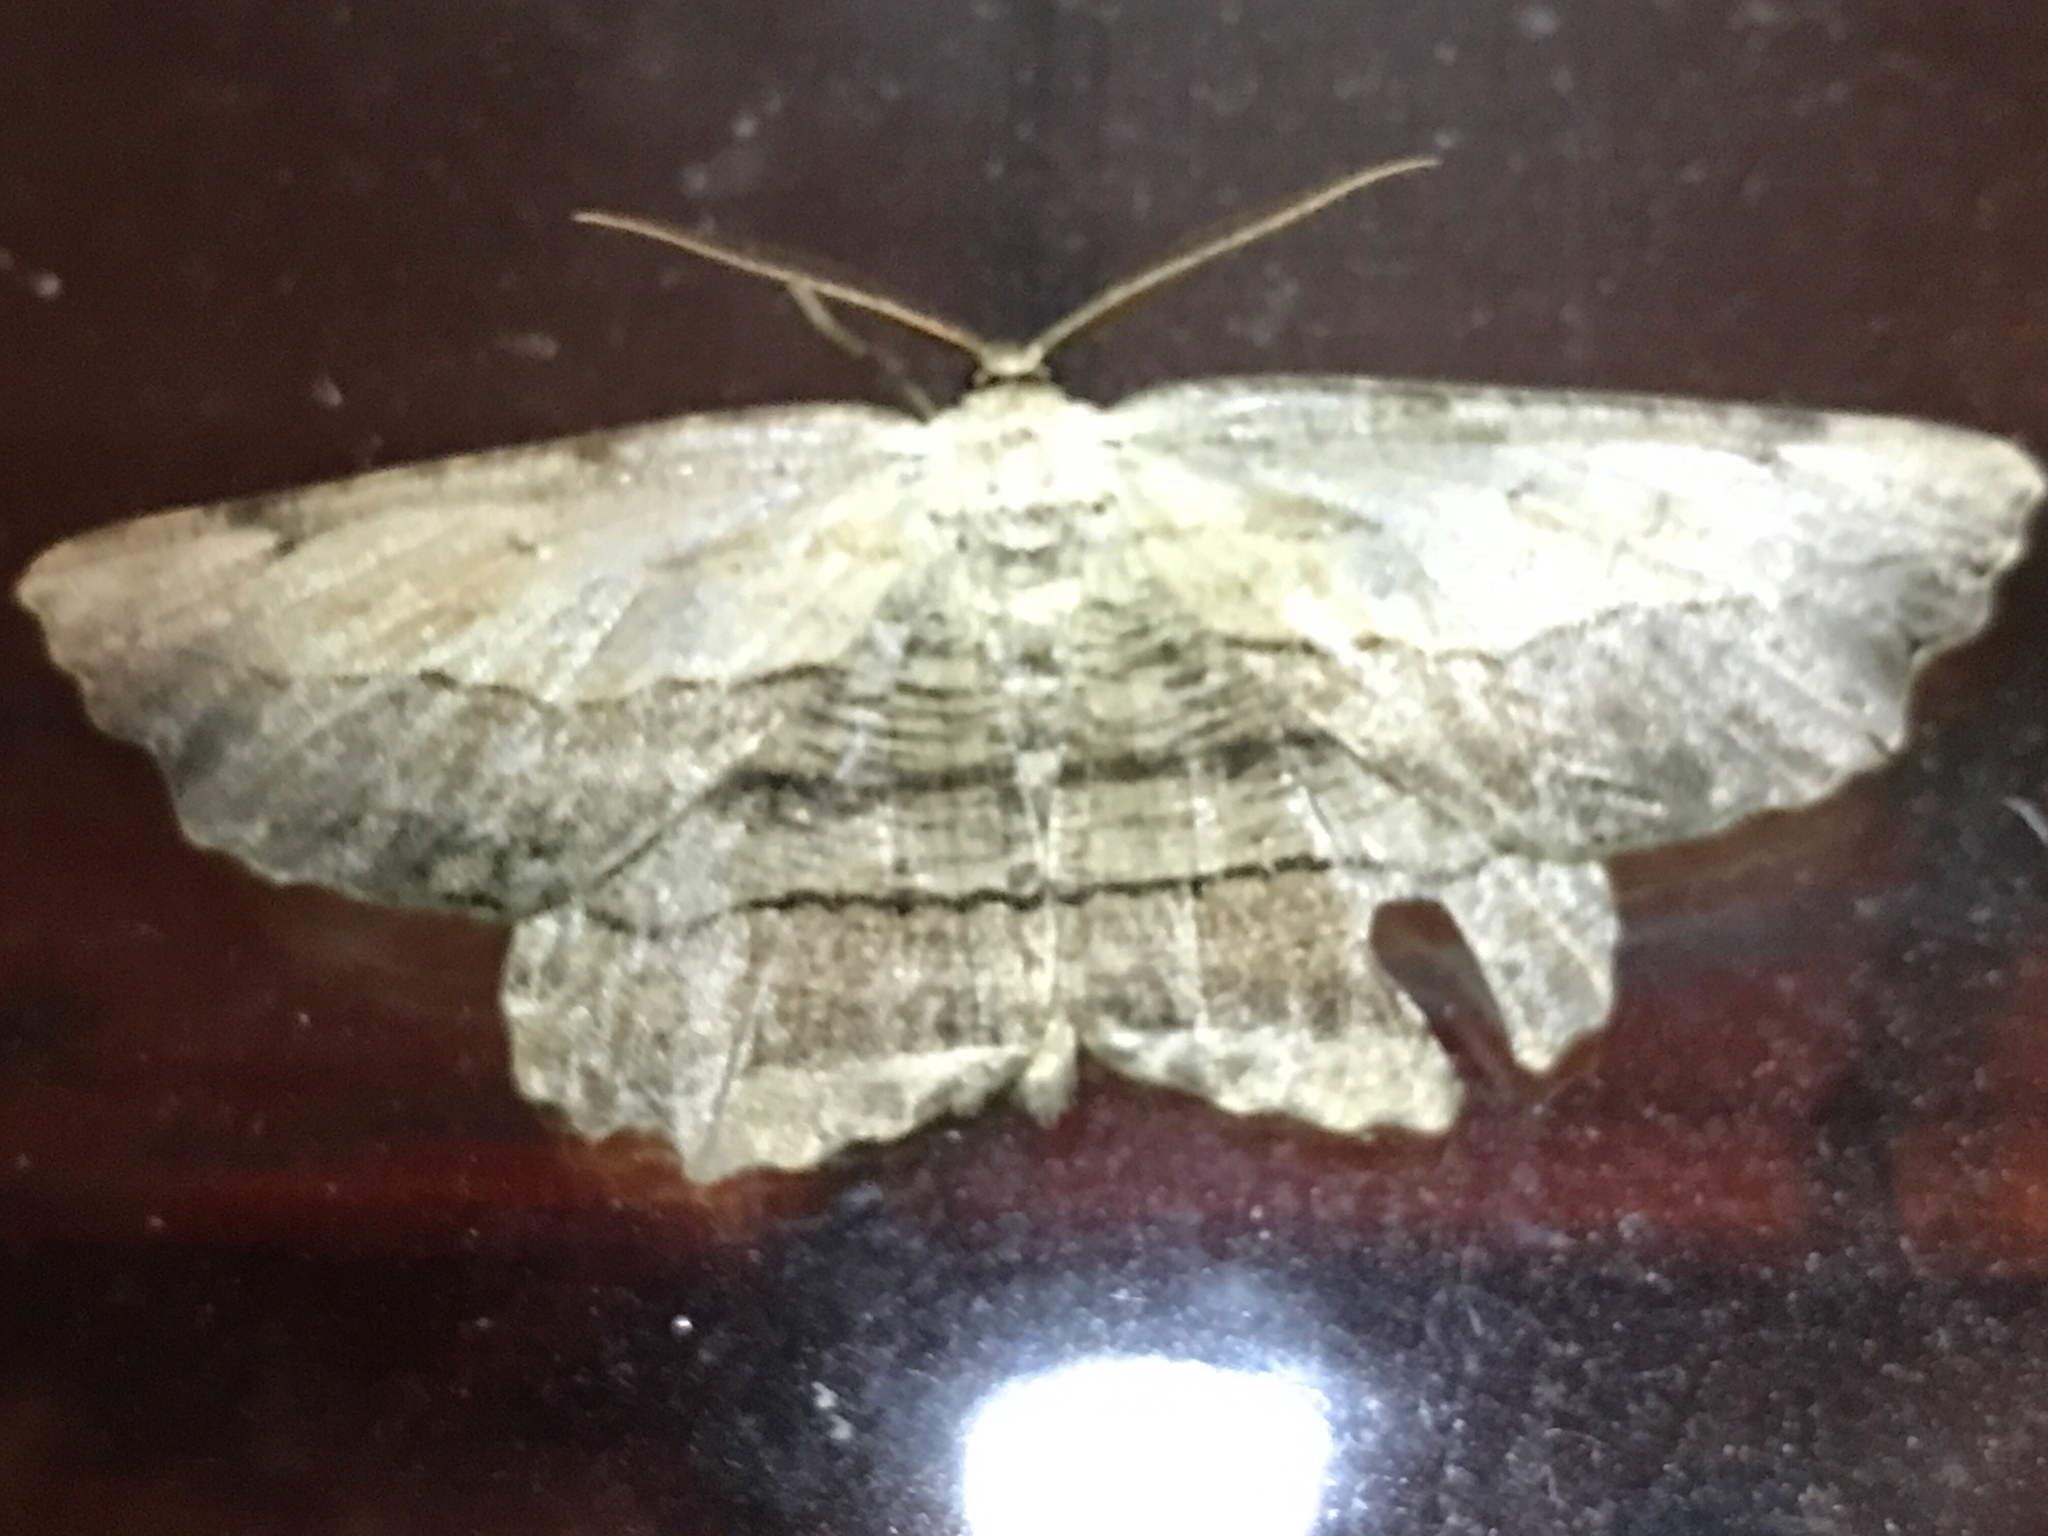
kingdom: Animalia
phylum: Arthropoda
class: Insecta
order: Lepidoptera
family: Geometridae
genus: Lytrosis
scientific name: Lytrosis unitaria
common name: Common lytrosis
